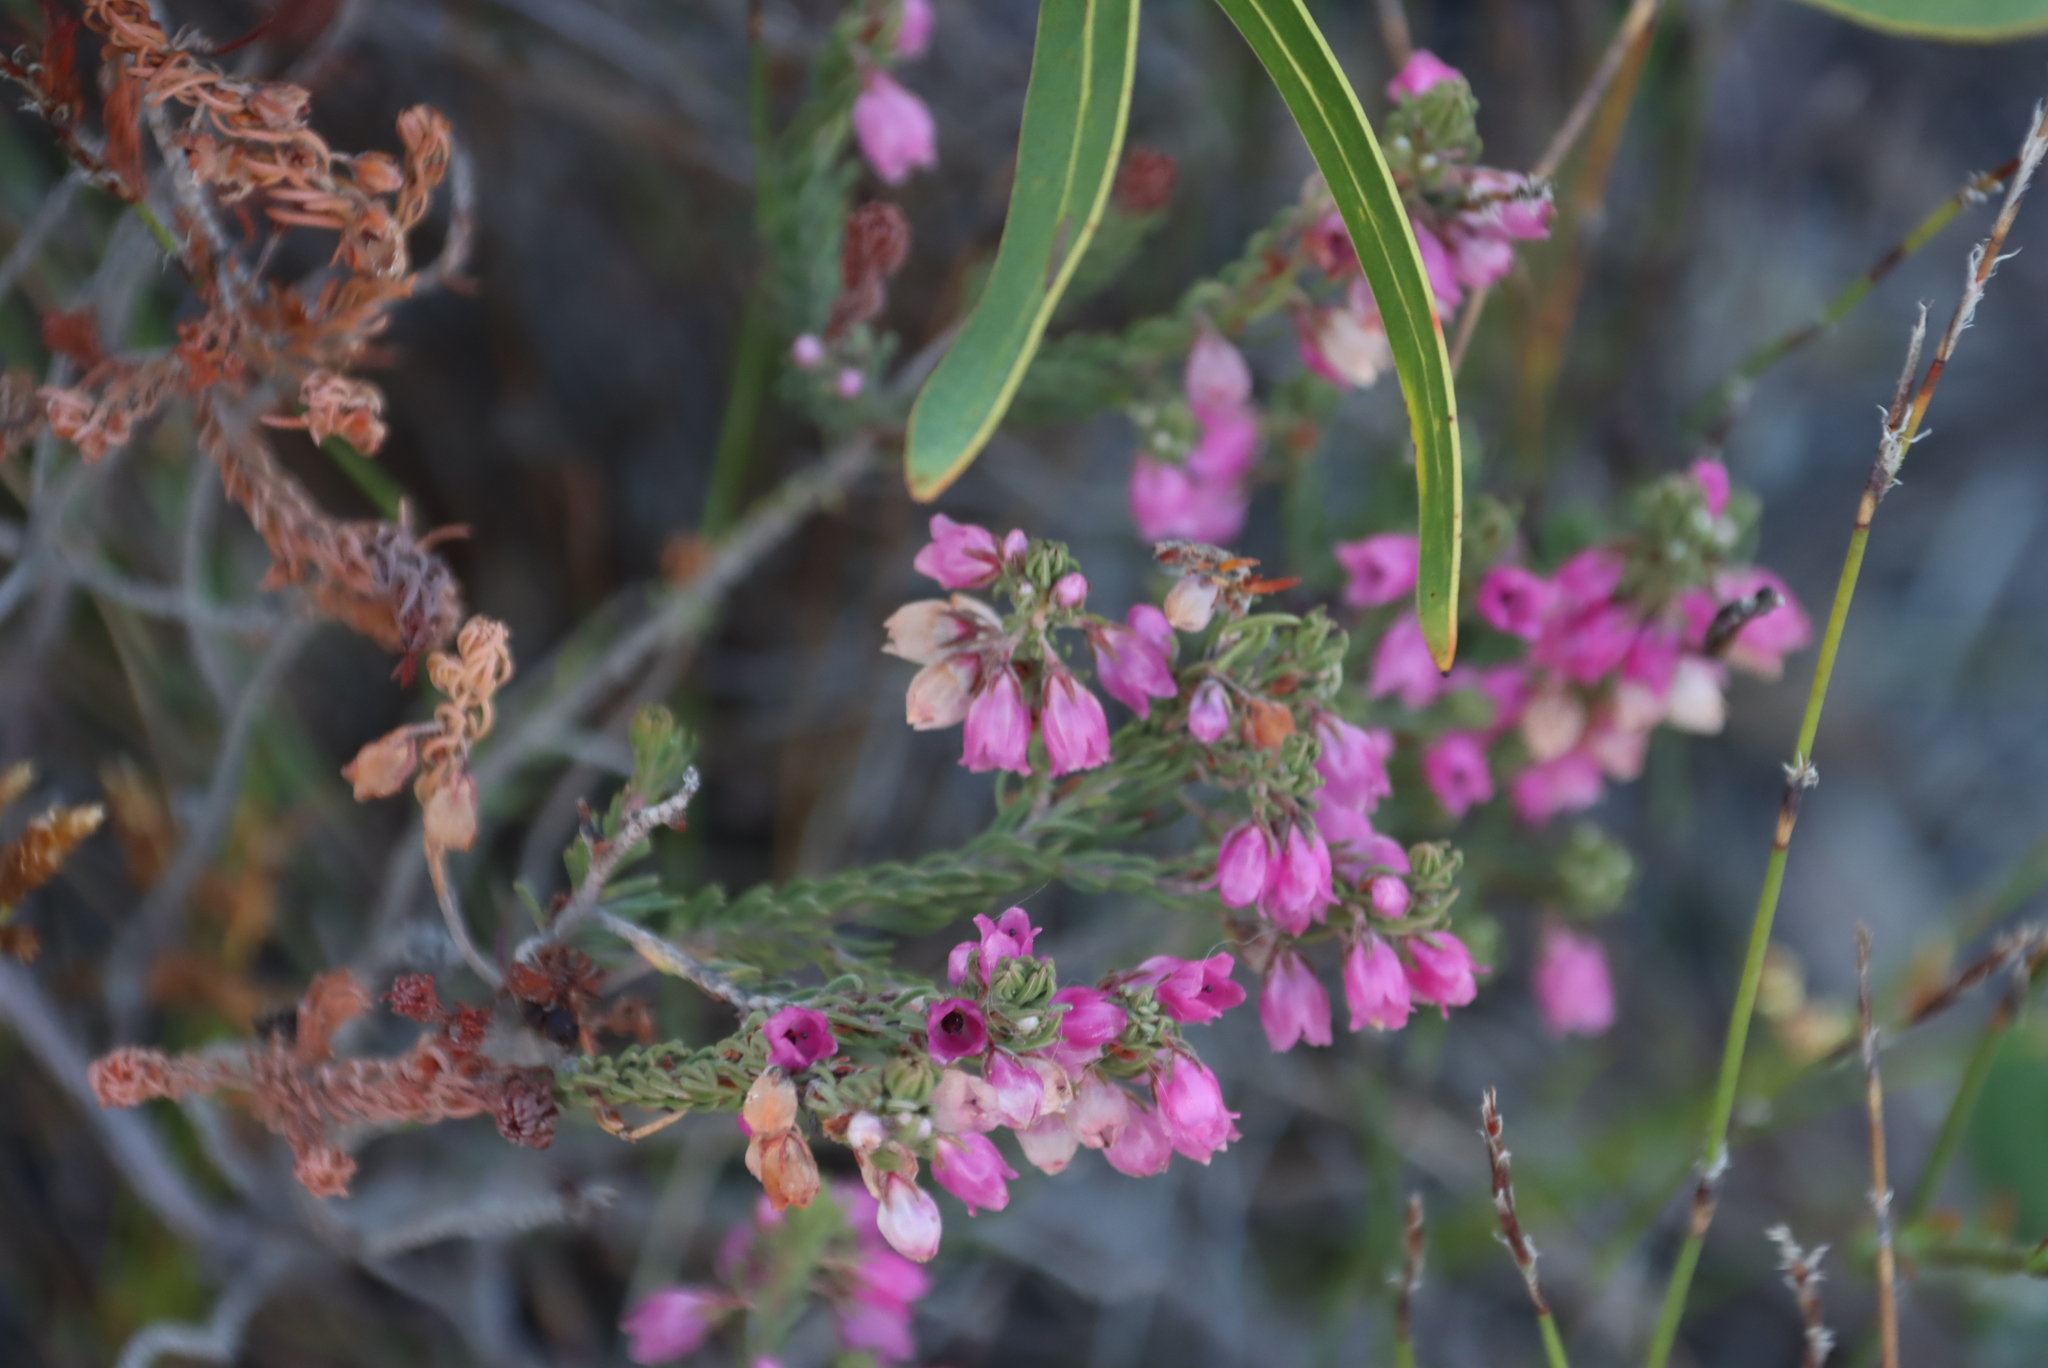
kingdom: Plantae
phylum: Tracheophyta
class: Magnoliopsida
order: Ericales
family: Ericaceae
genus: Erica
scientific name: Erica viscaria
